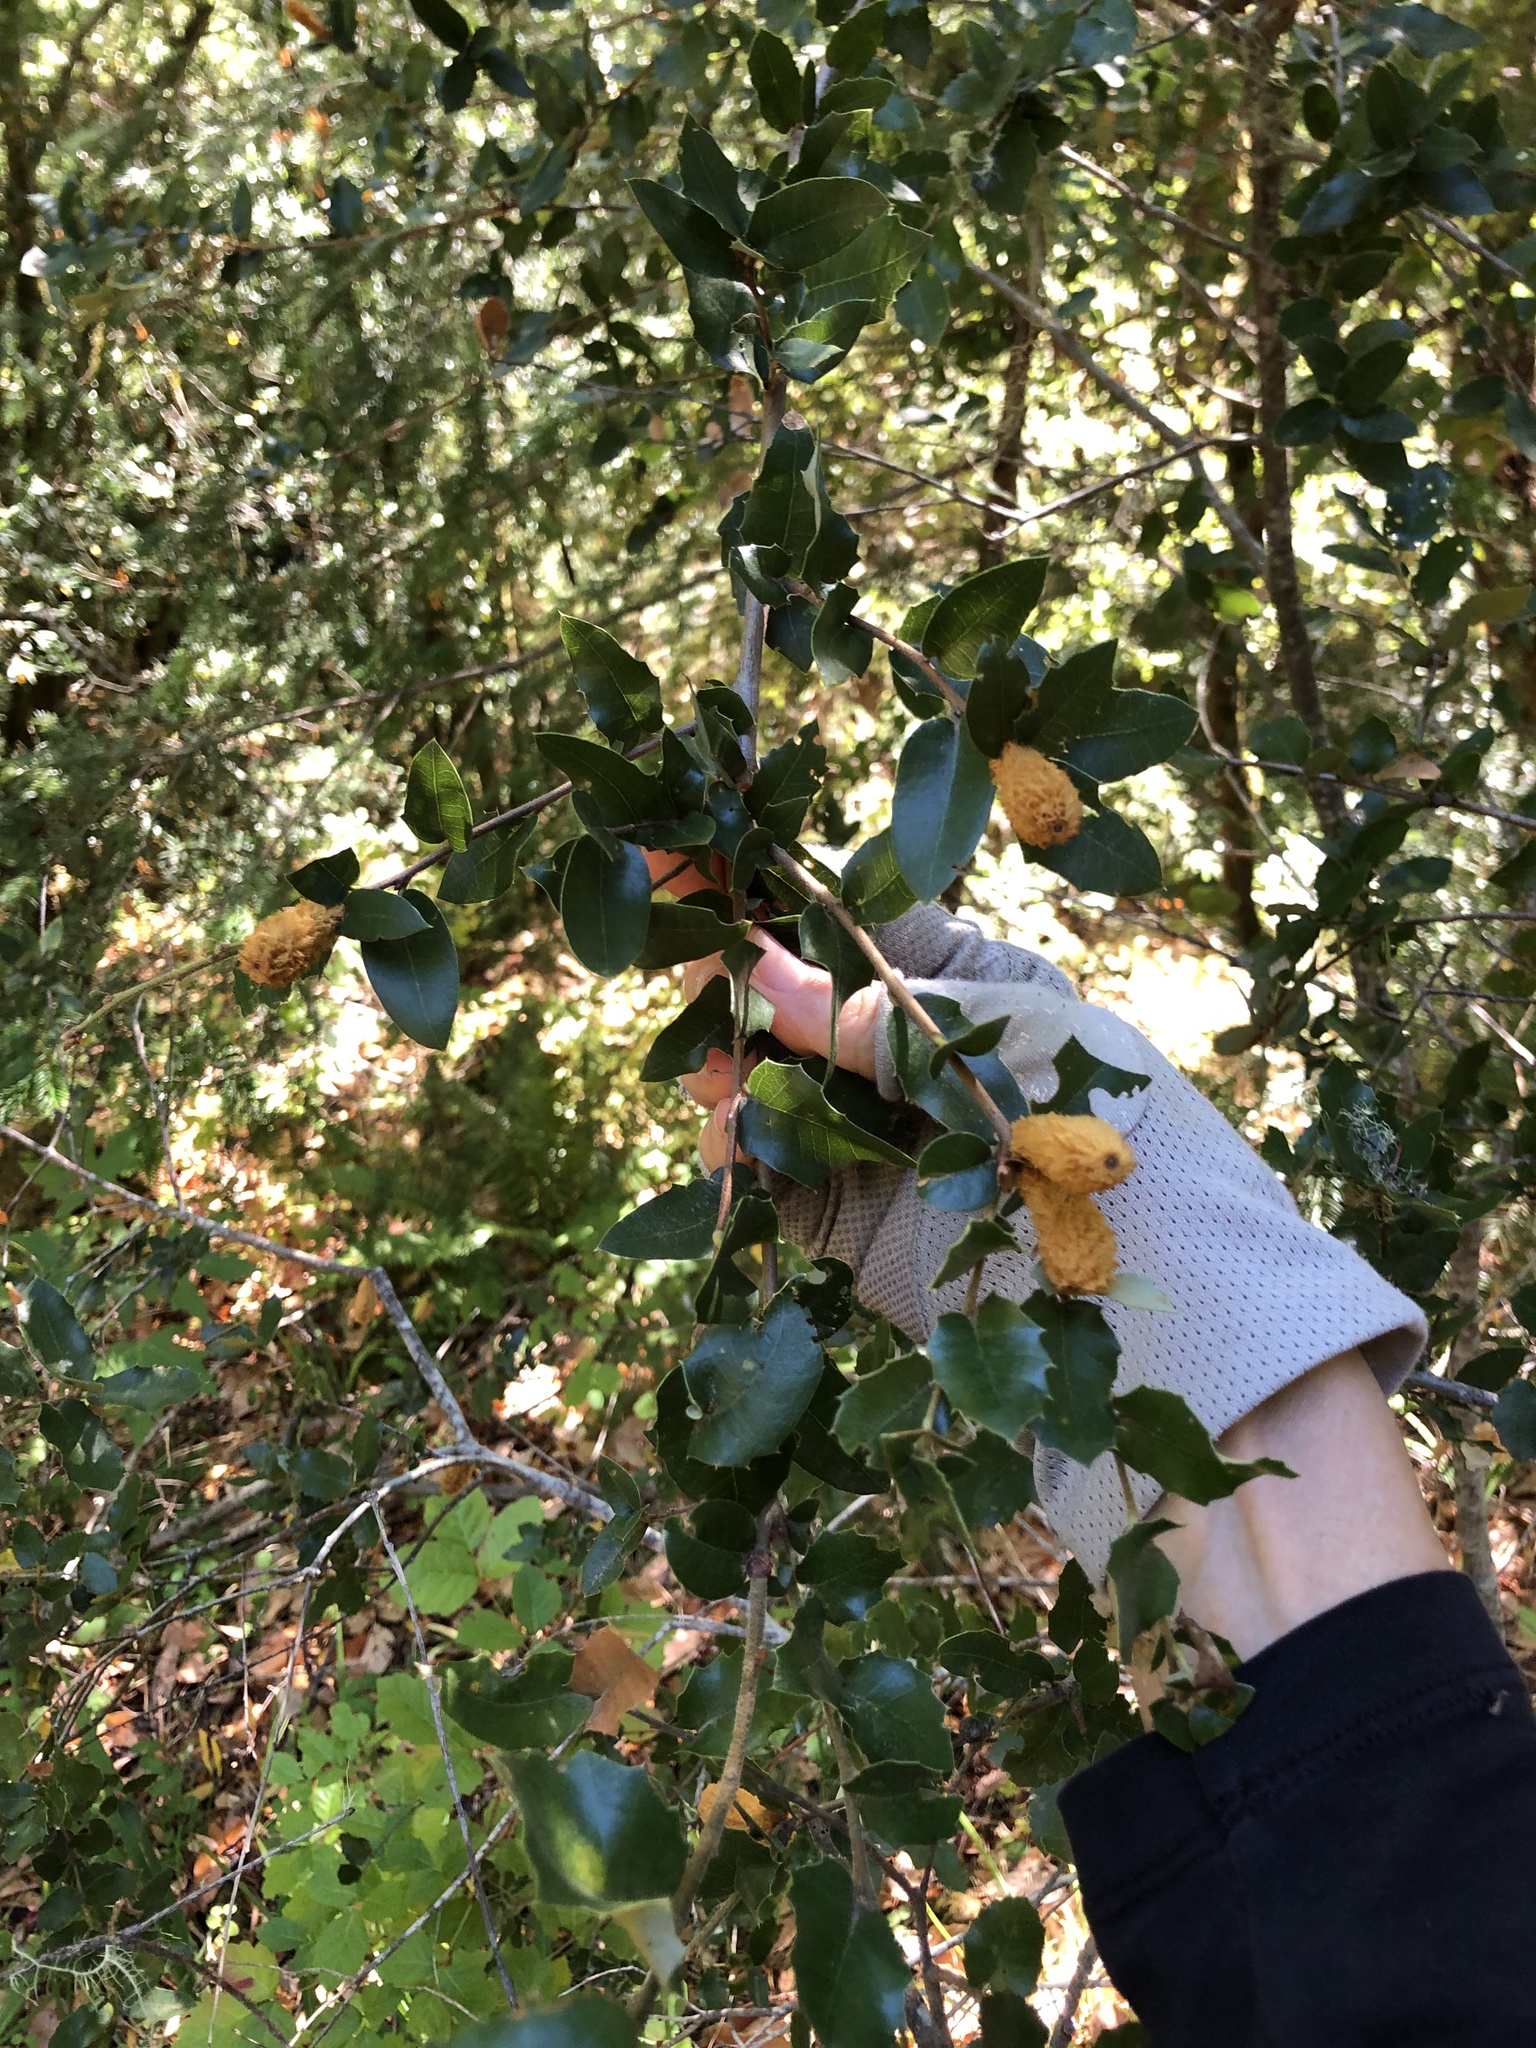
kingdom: Animalia
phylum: Arthropoda
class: Insecta
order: Hymenoptera
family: Cynipidae
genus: Heteroecus
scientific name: Heteroecus
